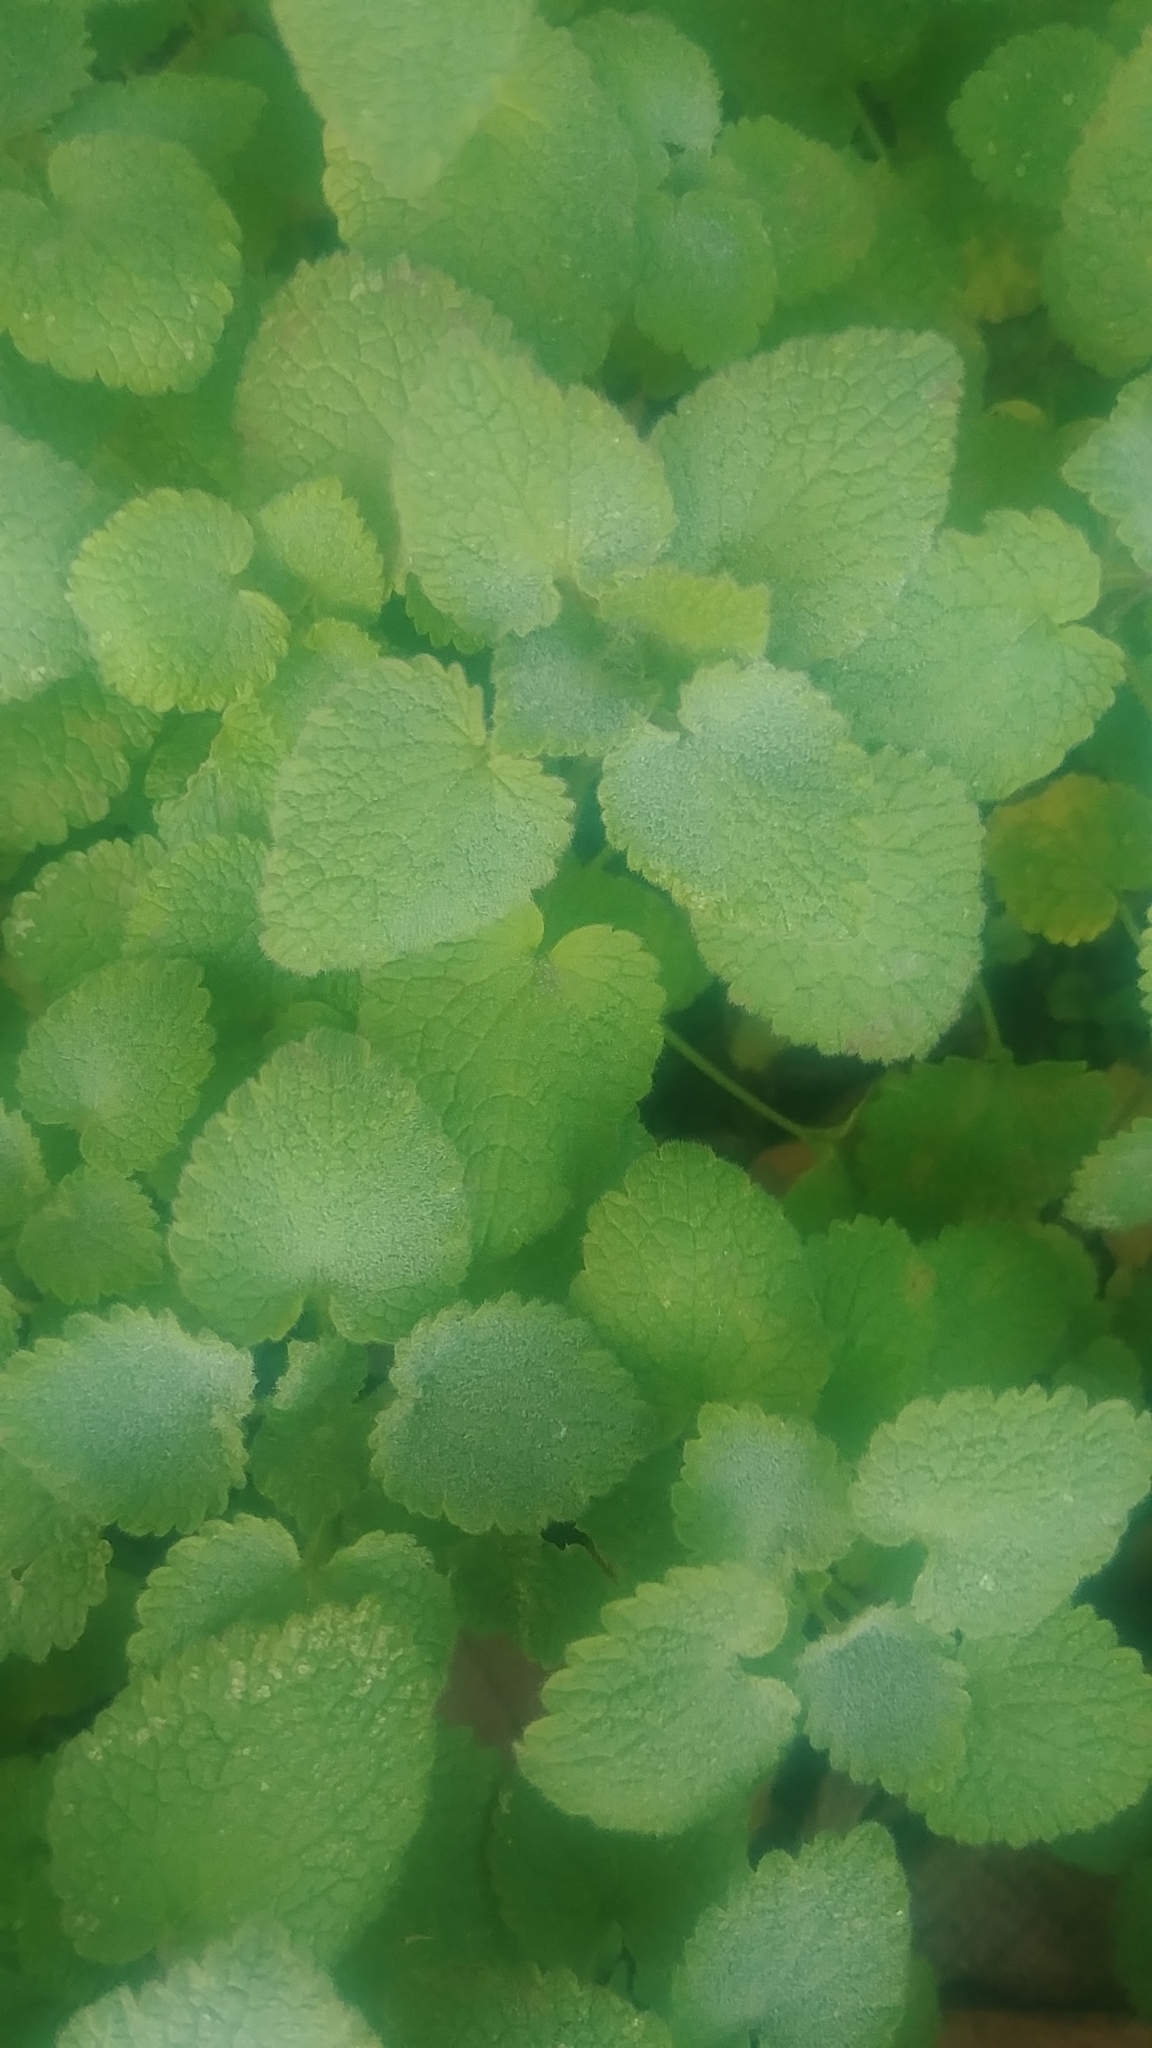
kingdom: Plantae
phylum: Tracheophyta
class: Magnoliopsida
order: Lamiales
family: Lamiaceae
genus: Lamium
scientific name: Lamium purpureum
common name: Red dead-nettle
